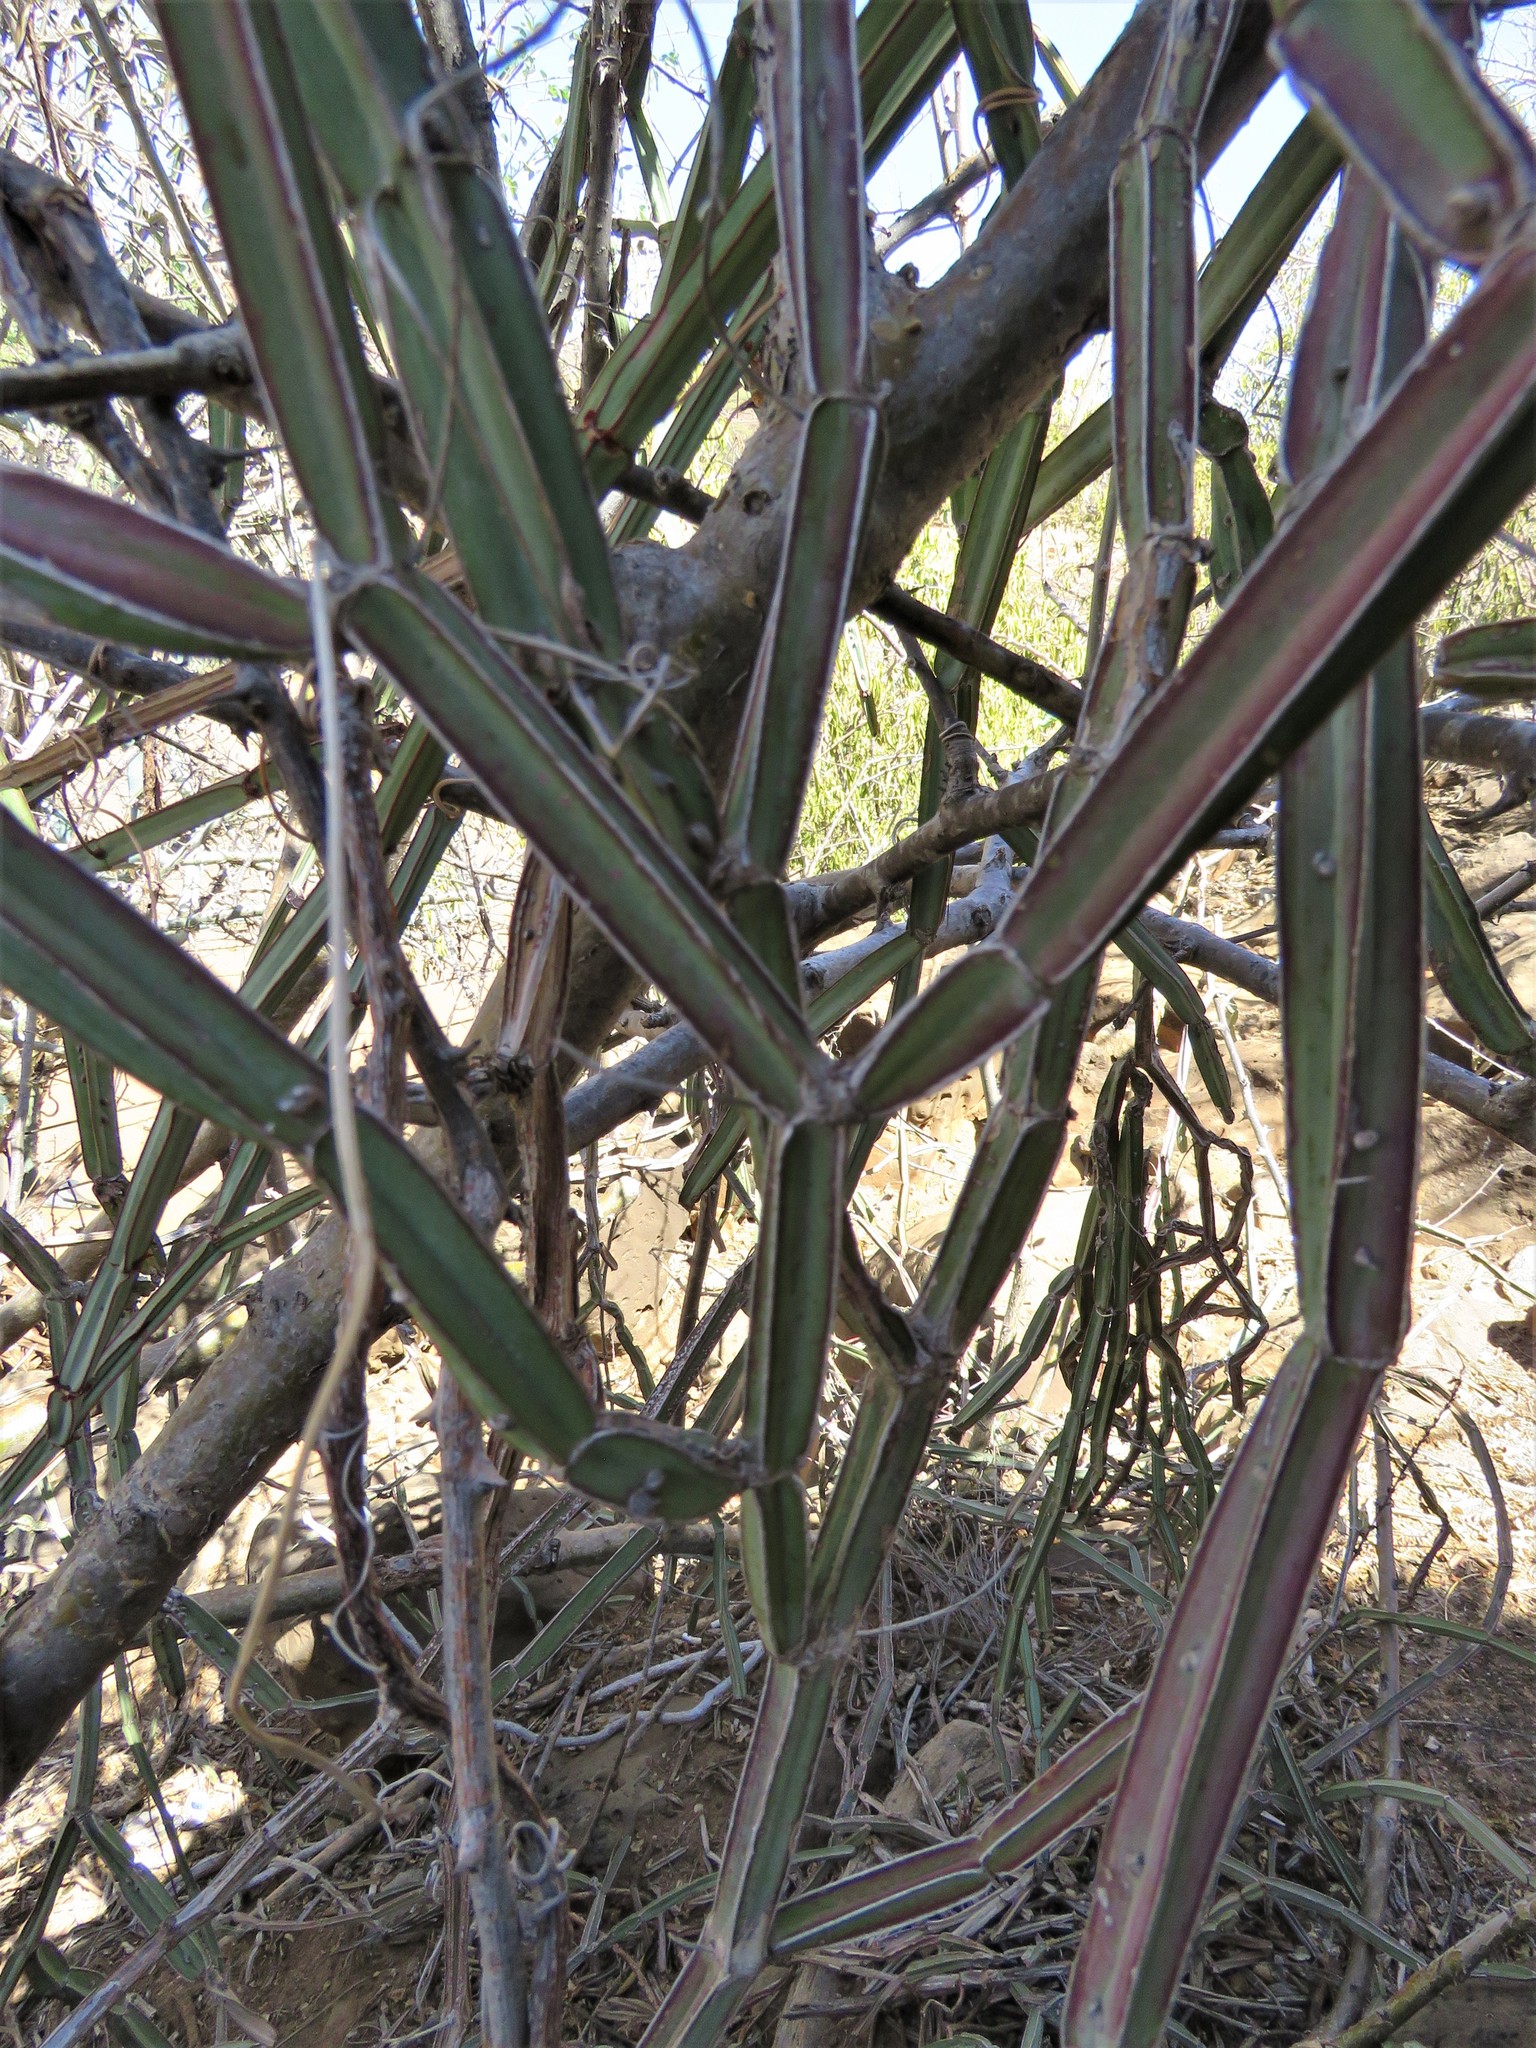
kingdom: Plantae
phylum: Tracheophyta
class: Magnoliopsida
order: Vitales
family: Vitaceae
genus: Cissus
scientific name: Cissus quadrangularis
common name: Veldt-grape
